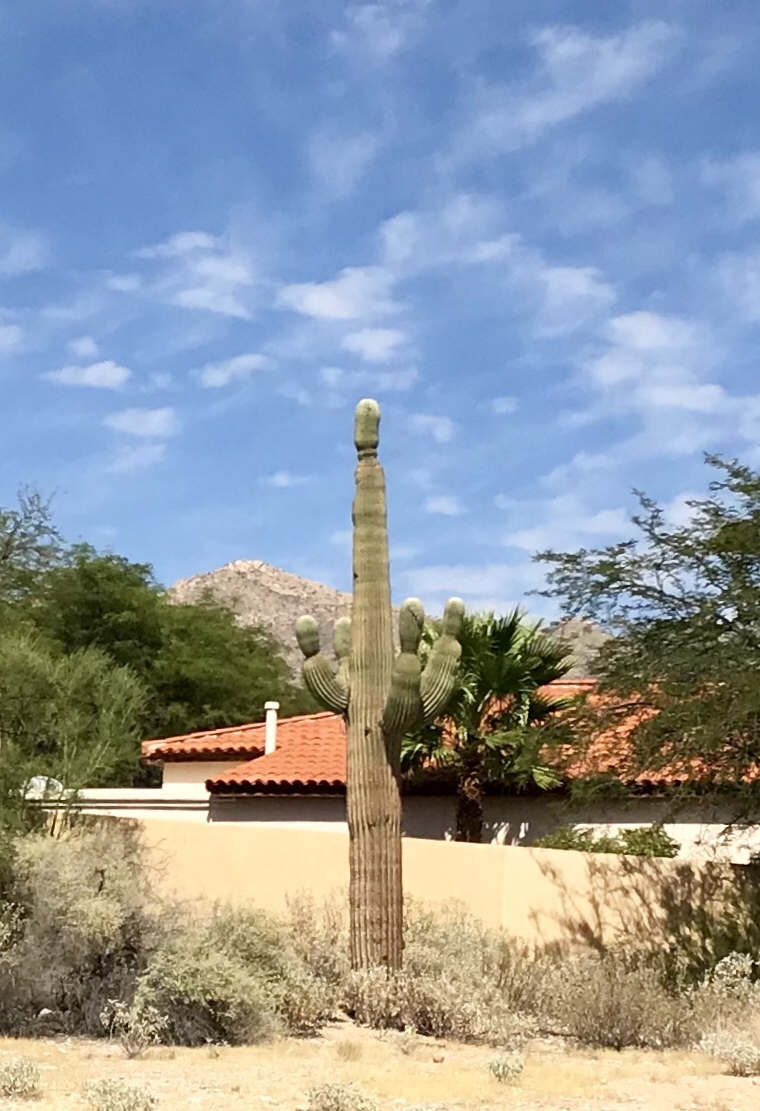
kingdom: Plantae
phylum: Tracheophyta
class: Magnoliopsida
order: Caryophyllales
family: Cactaceae
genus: Carnegiea
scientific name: Carnegiea gigantea
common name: Saguaro
